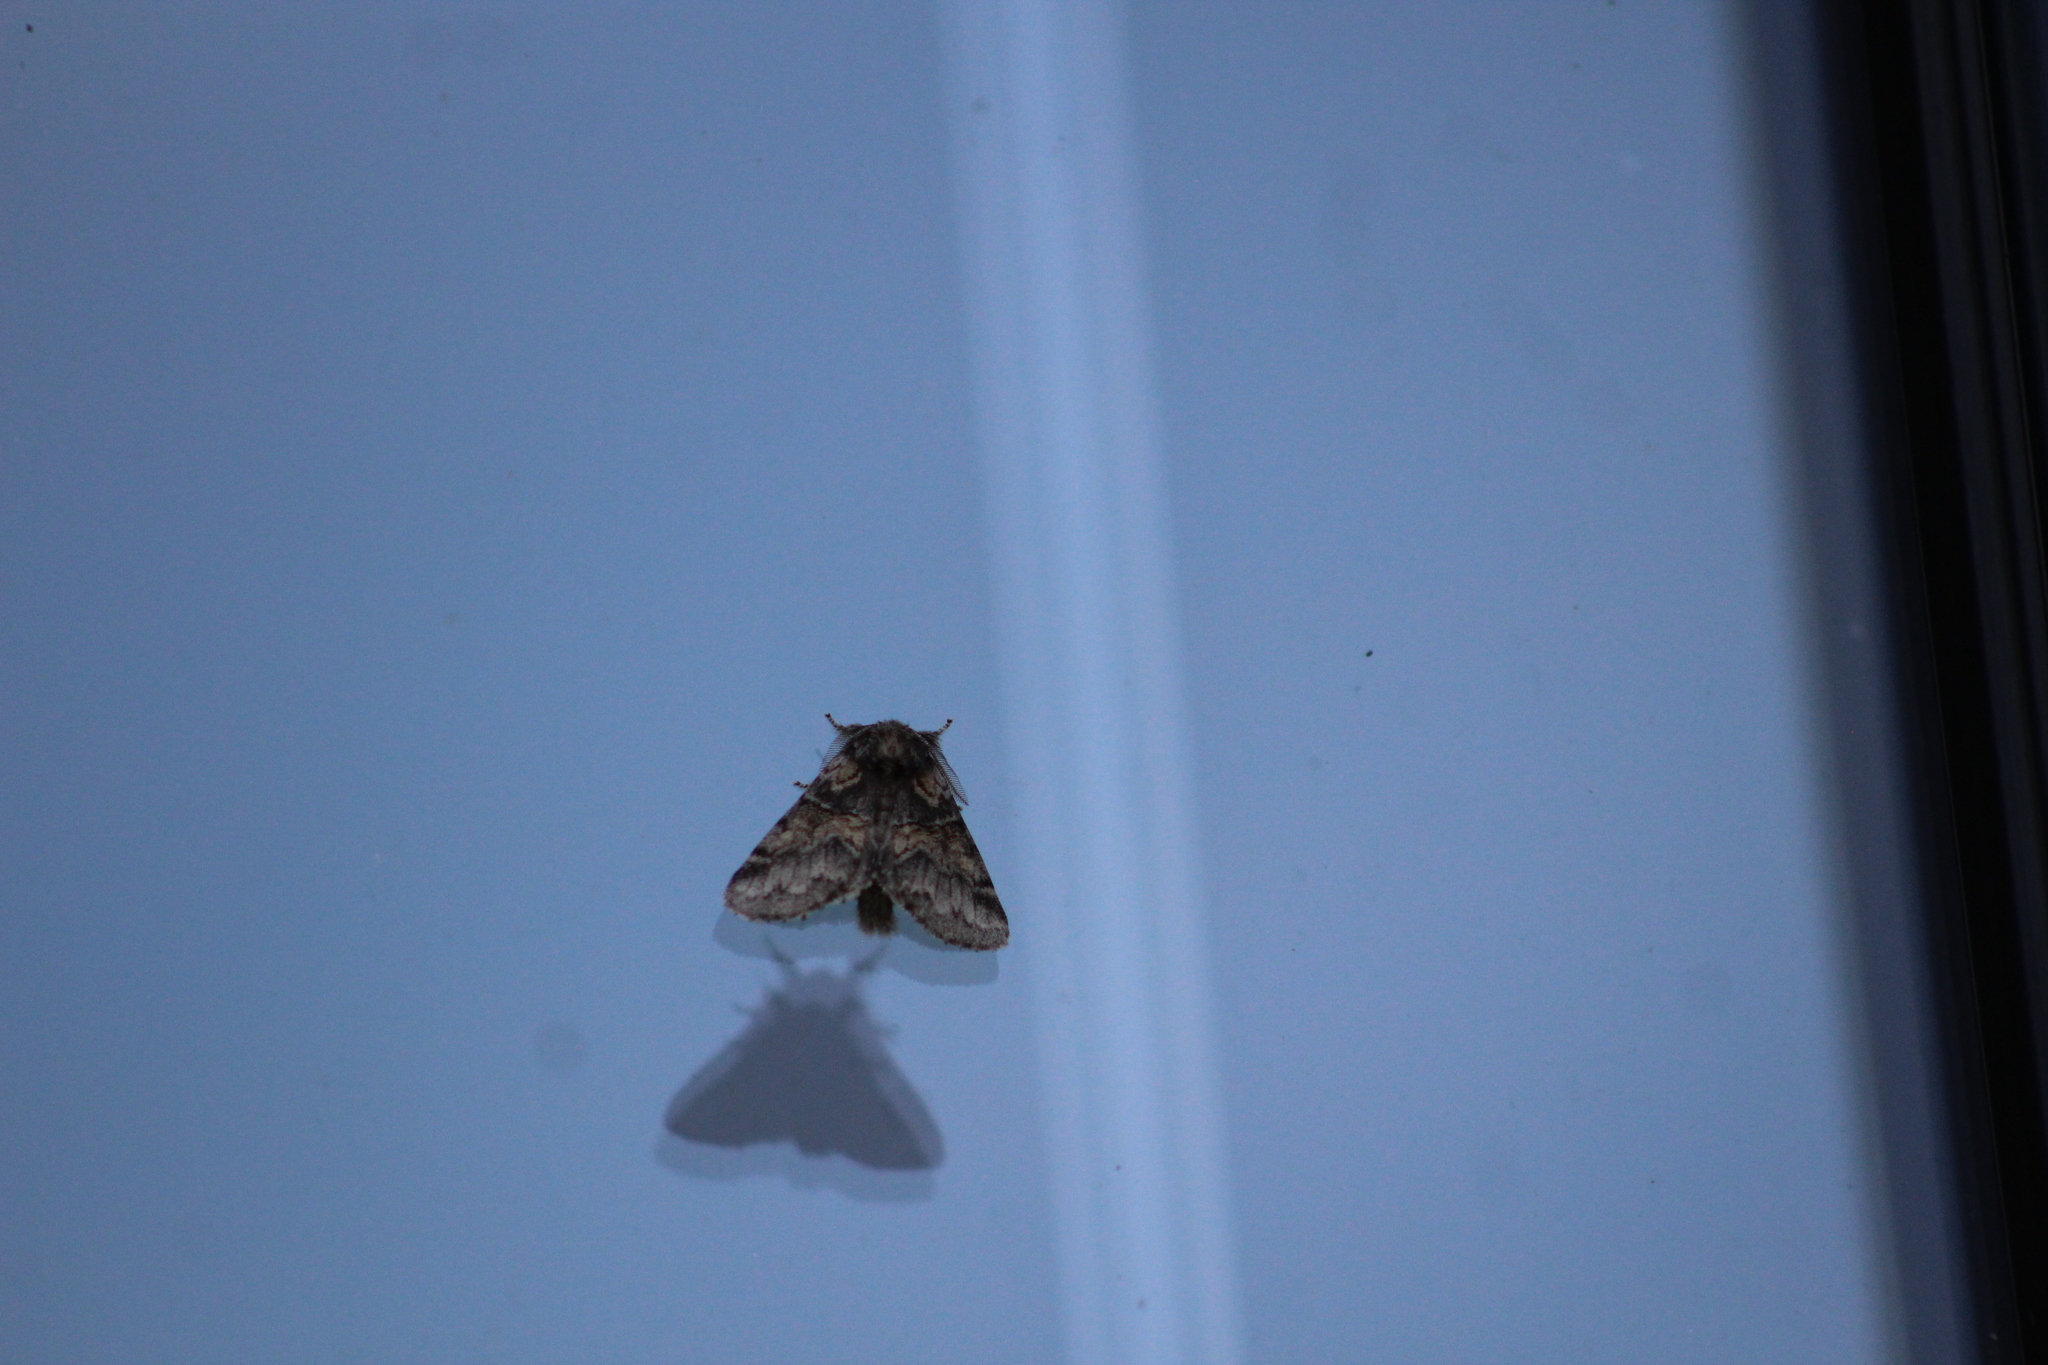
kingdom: Animalia
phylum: Arthropoda
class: Insecta
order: Lepidoptera
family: Notodontidae
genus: Gluphisia
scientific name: Gluphisia septentrionis
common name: Common gluphisia
